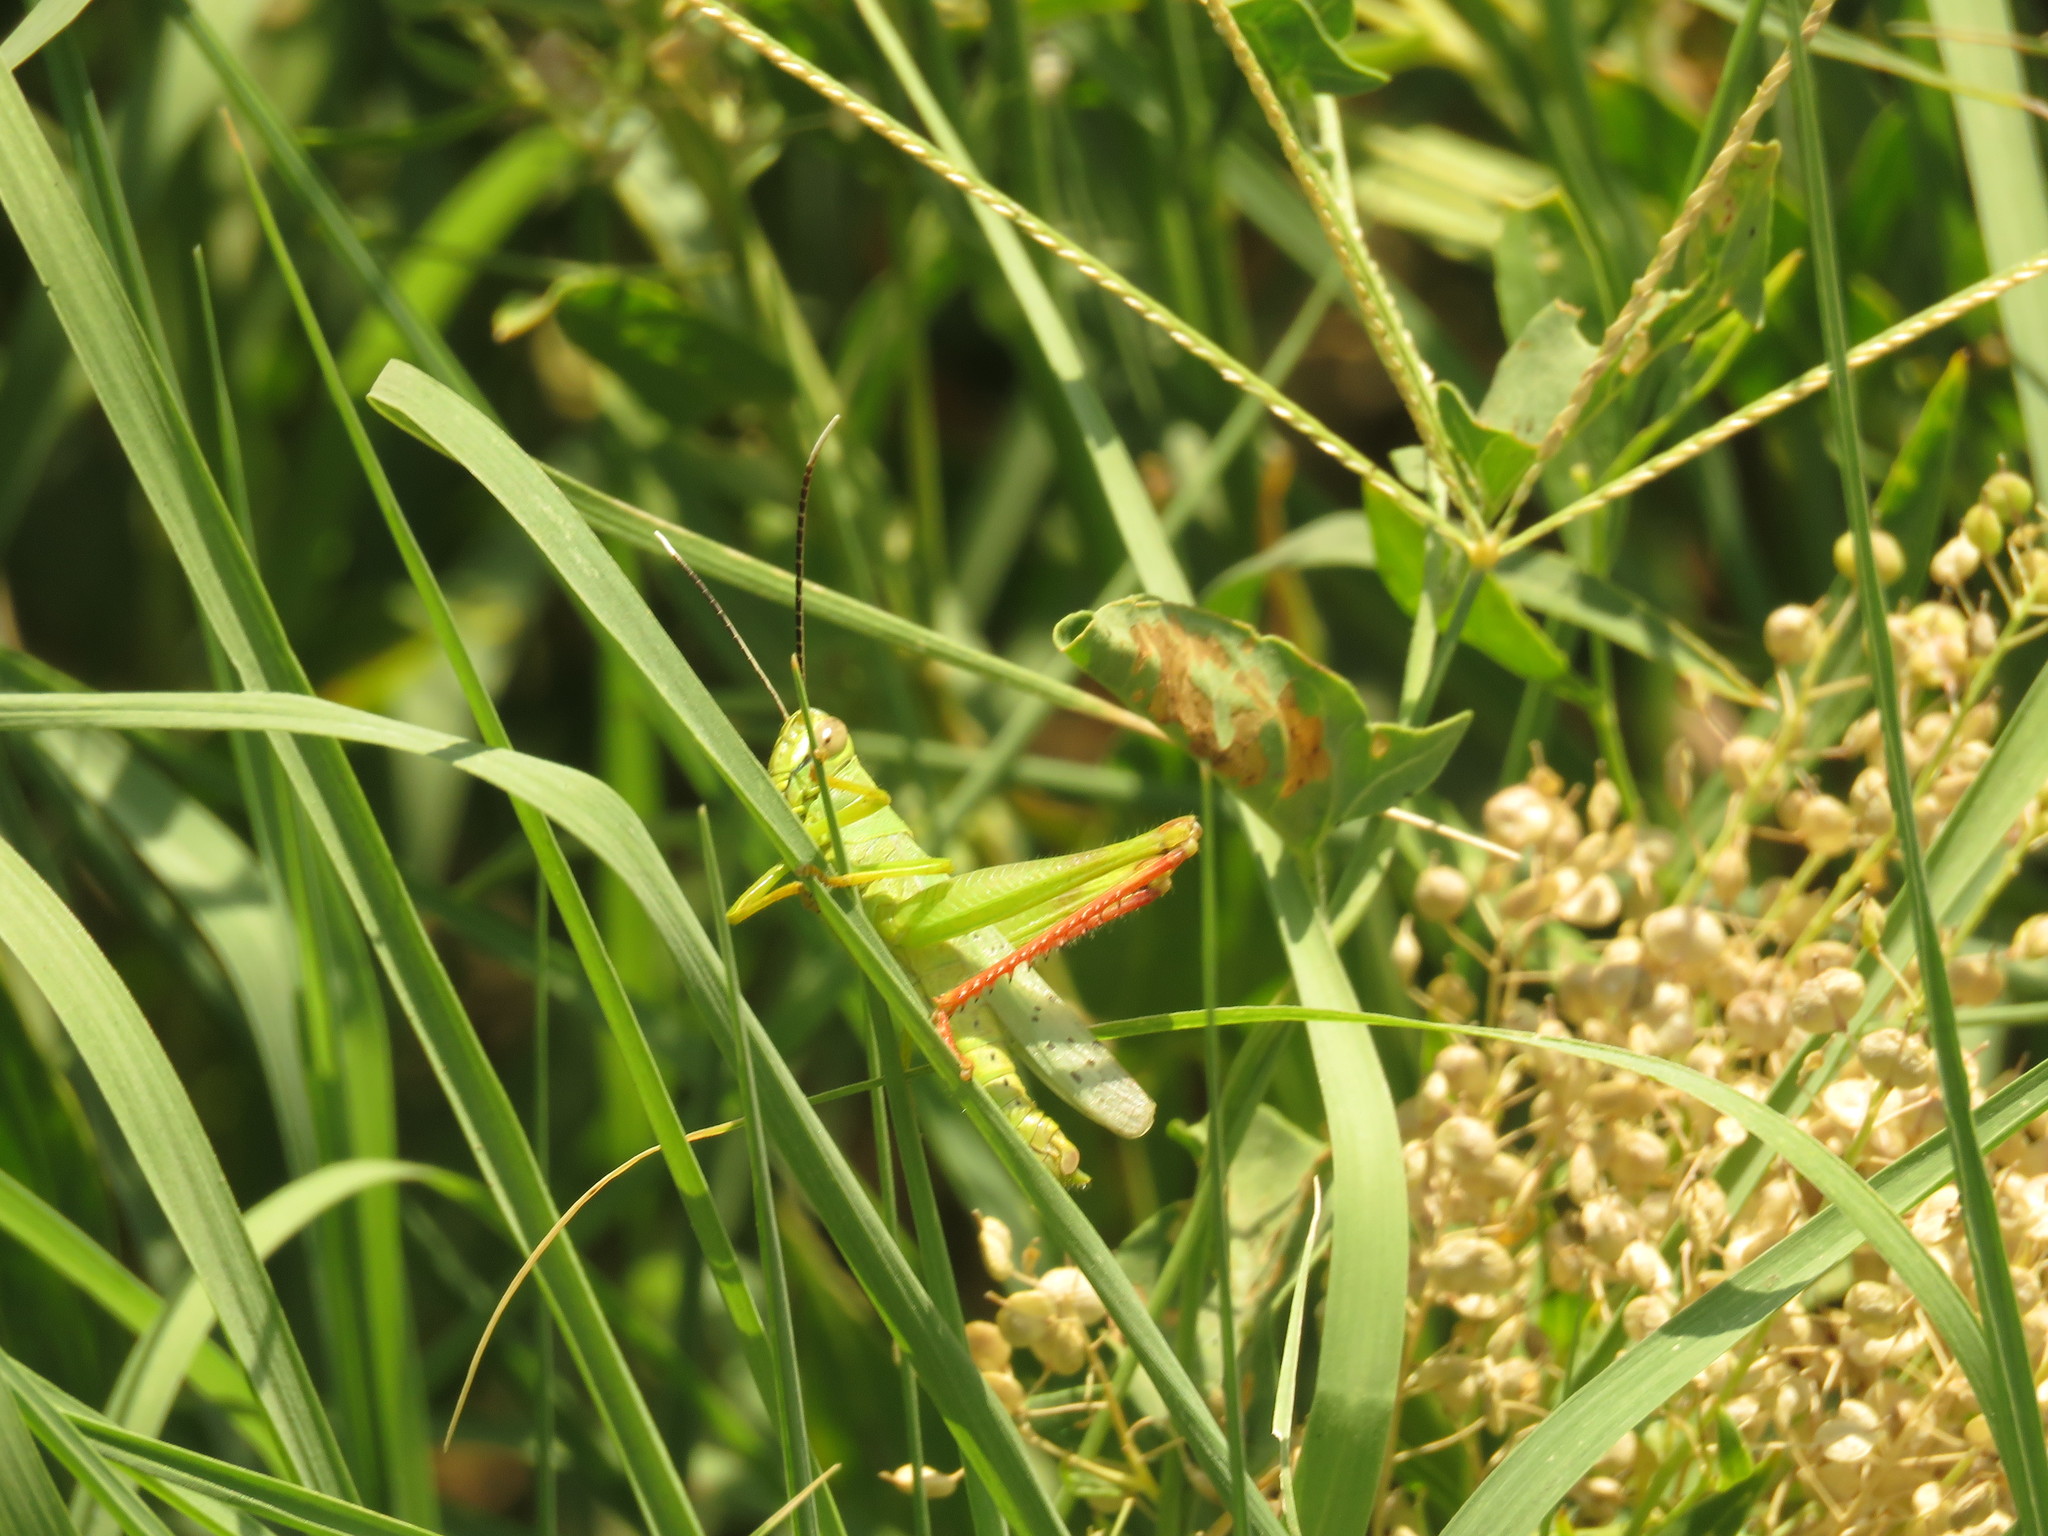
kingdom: Animalia
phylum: Arthropoda
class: Insecta
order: Orthoptera
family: Acrididae
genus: Heteracris
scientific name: Heteracris pterosticha
